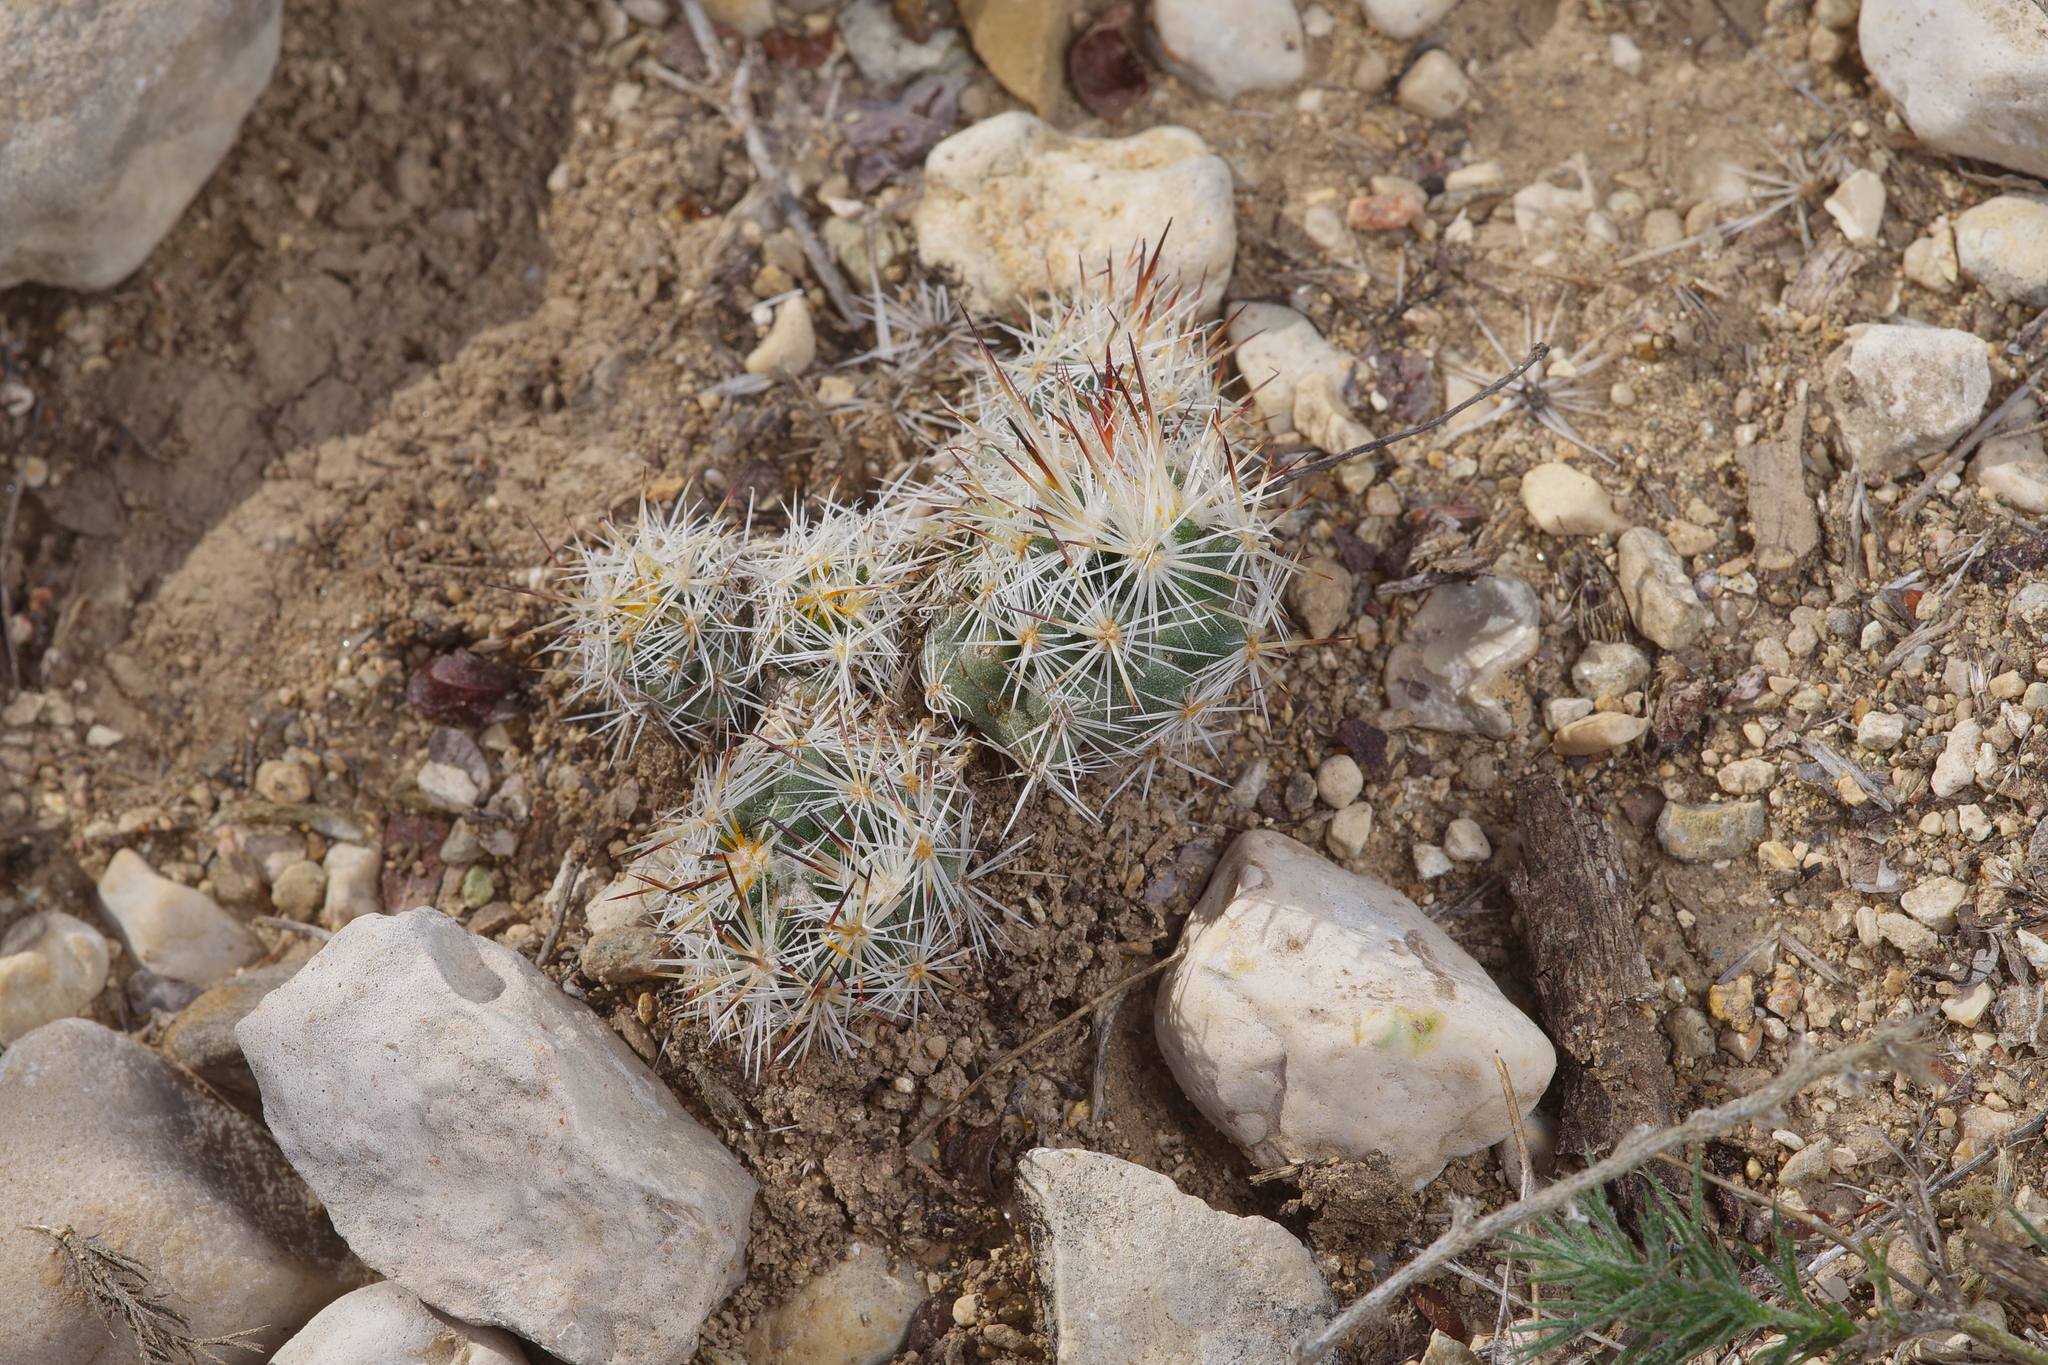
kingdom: Plantae
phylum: Tracheophyta
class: Magnoliopsida
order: Caryophyllales
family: Cactaceae
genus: Pelecyphora
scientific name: Pelecyphora emskoetteriana
